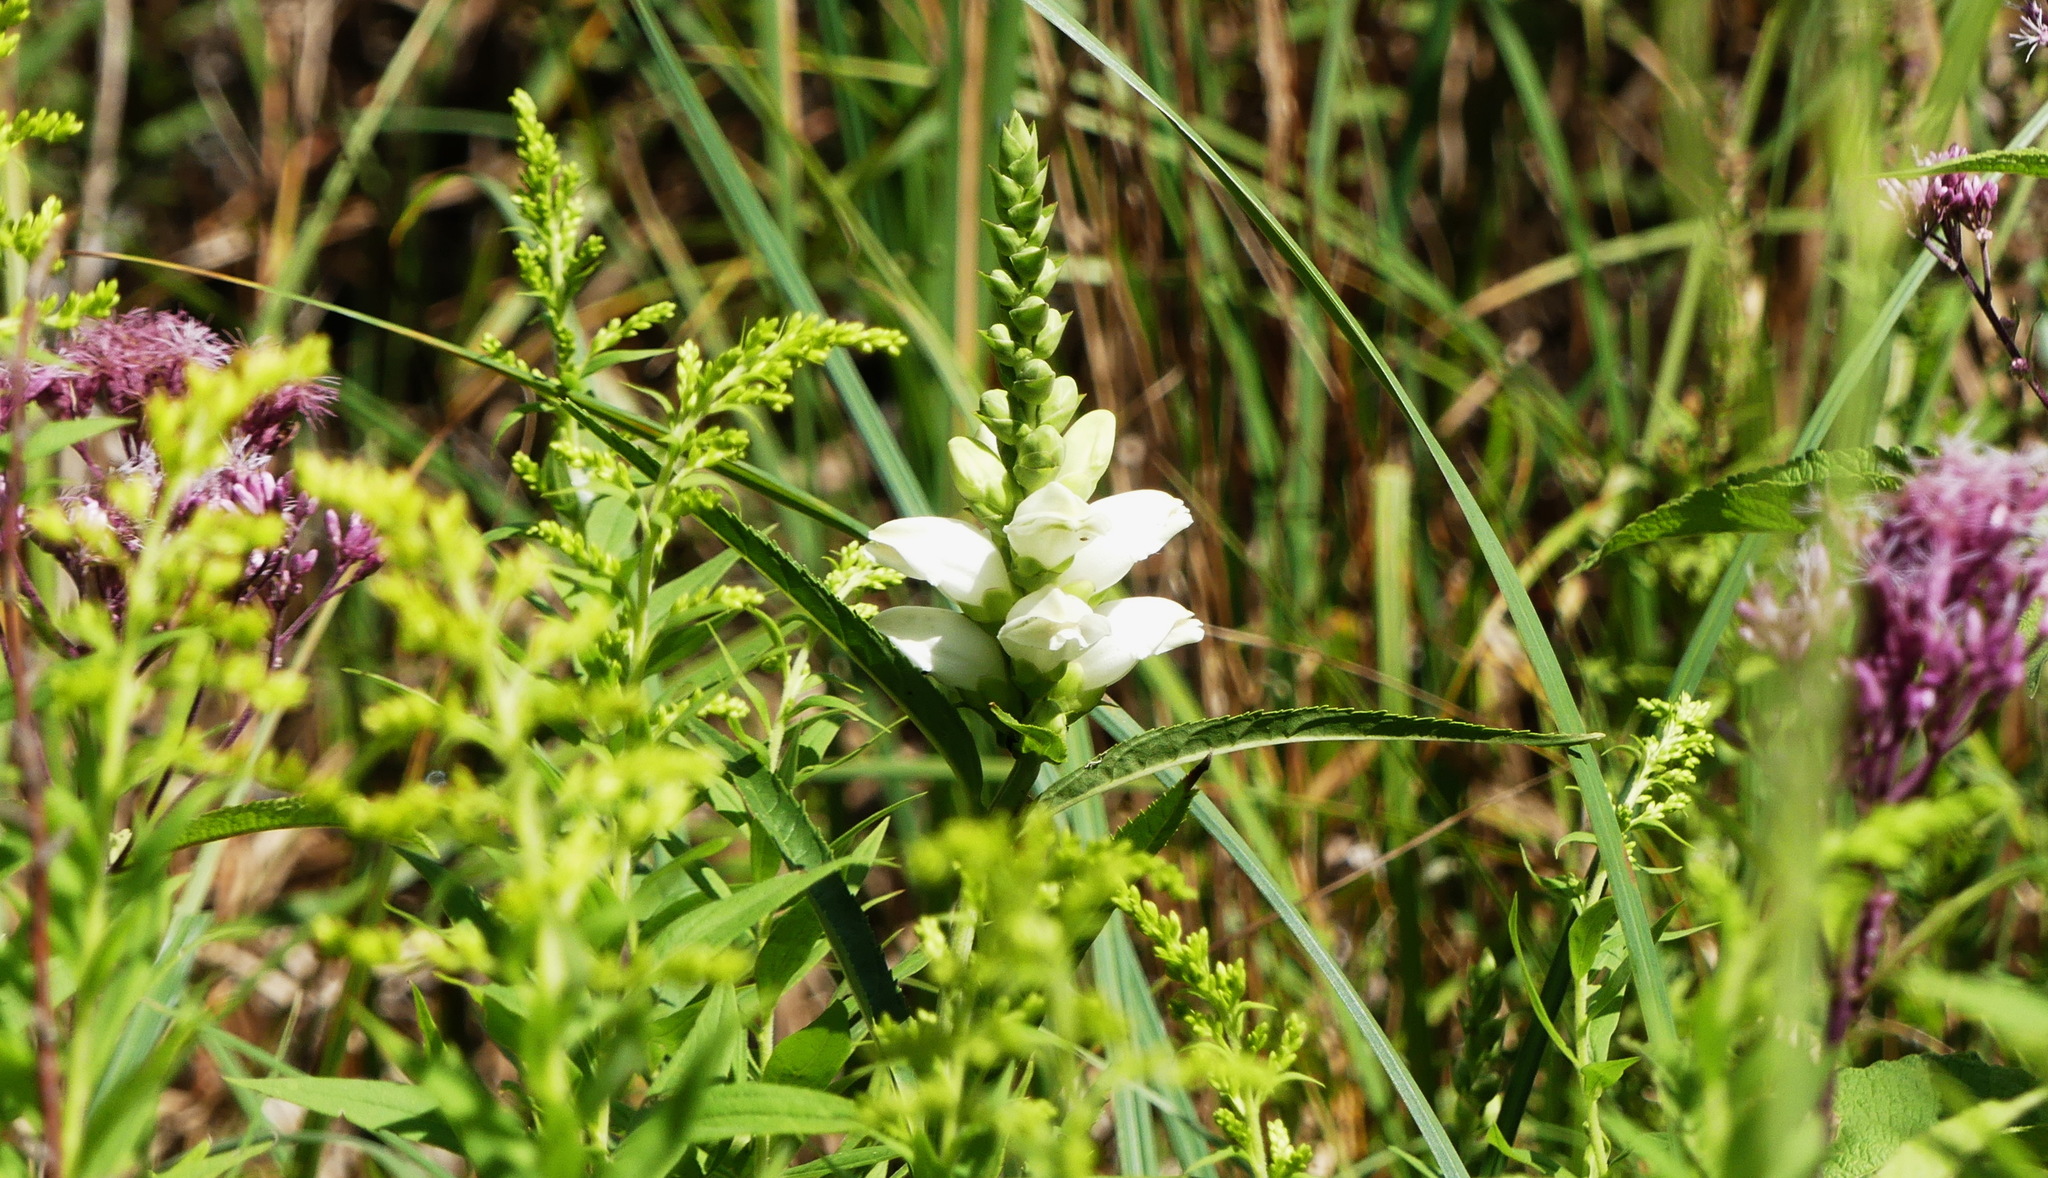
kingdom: Plantae
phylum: Tracheophyta
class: Magnoliopsida
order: Lamiales
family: Plantaginaceae
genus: Chelone
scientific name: Chelone glabra
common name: Snakehead
